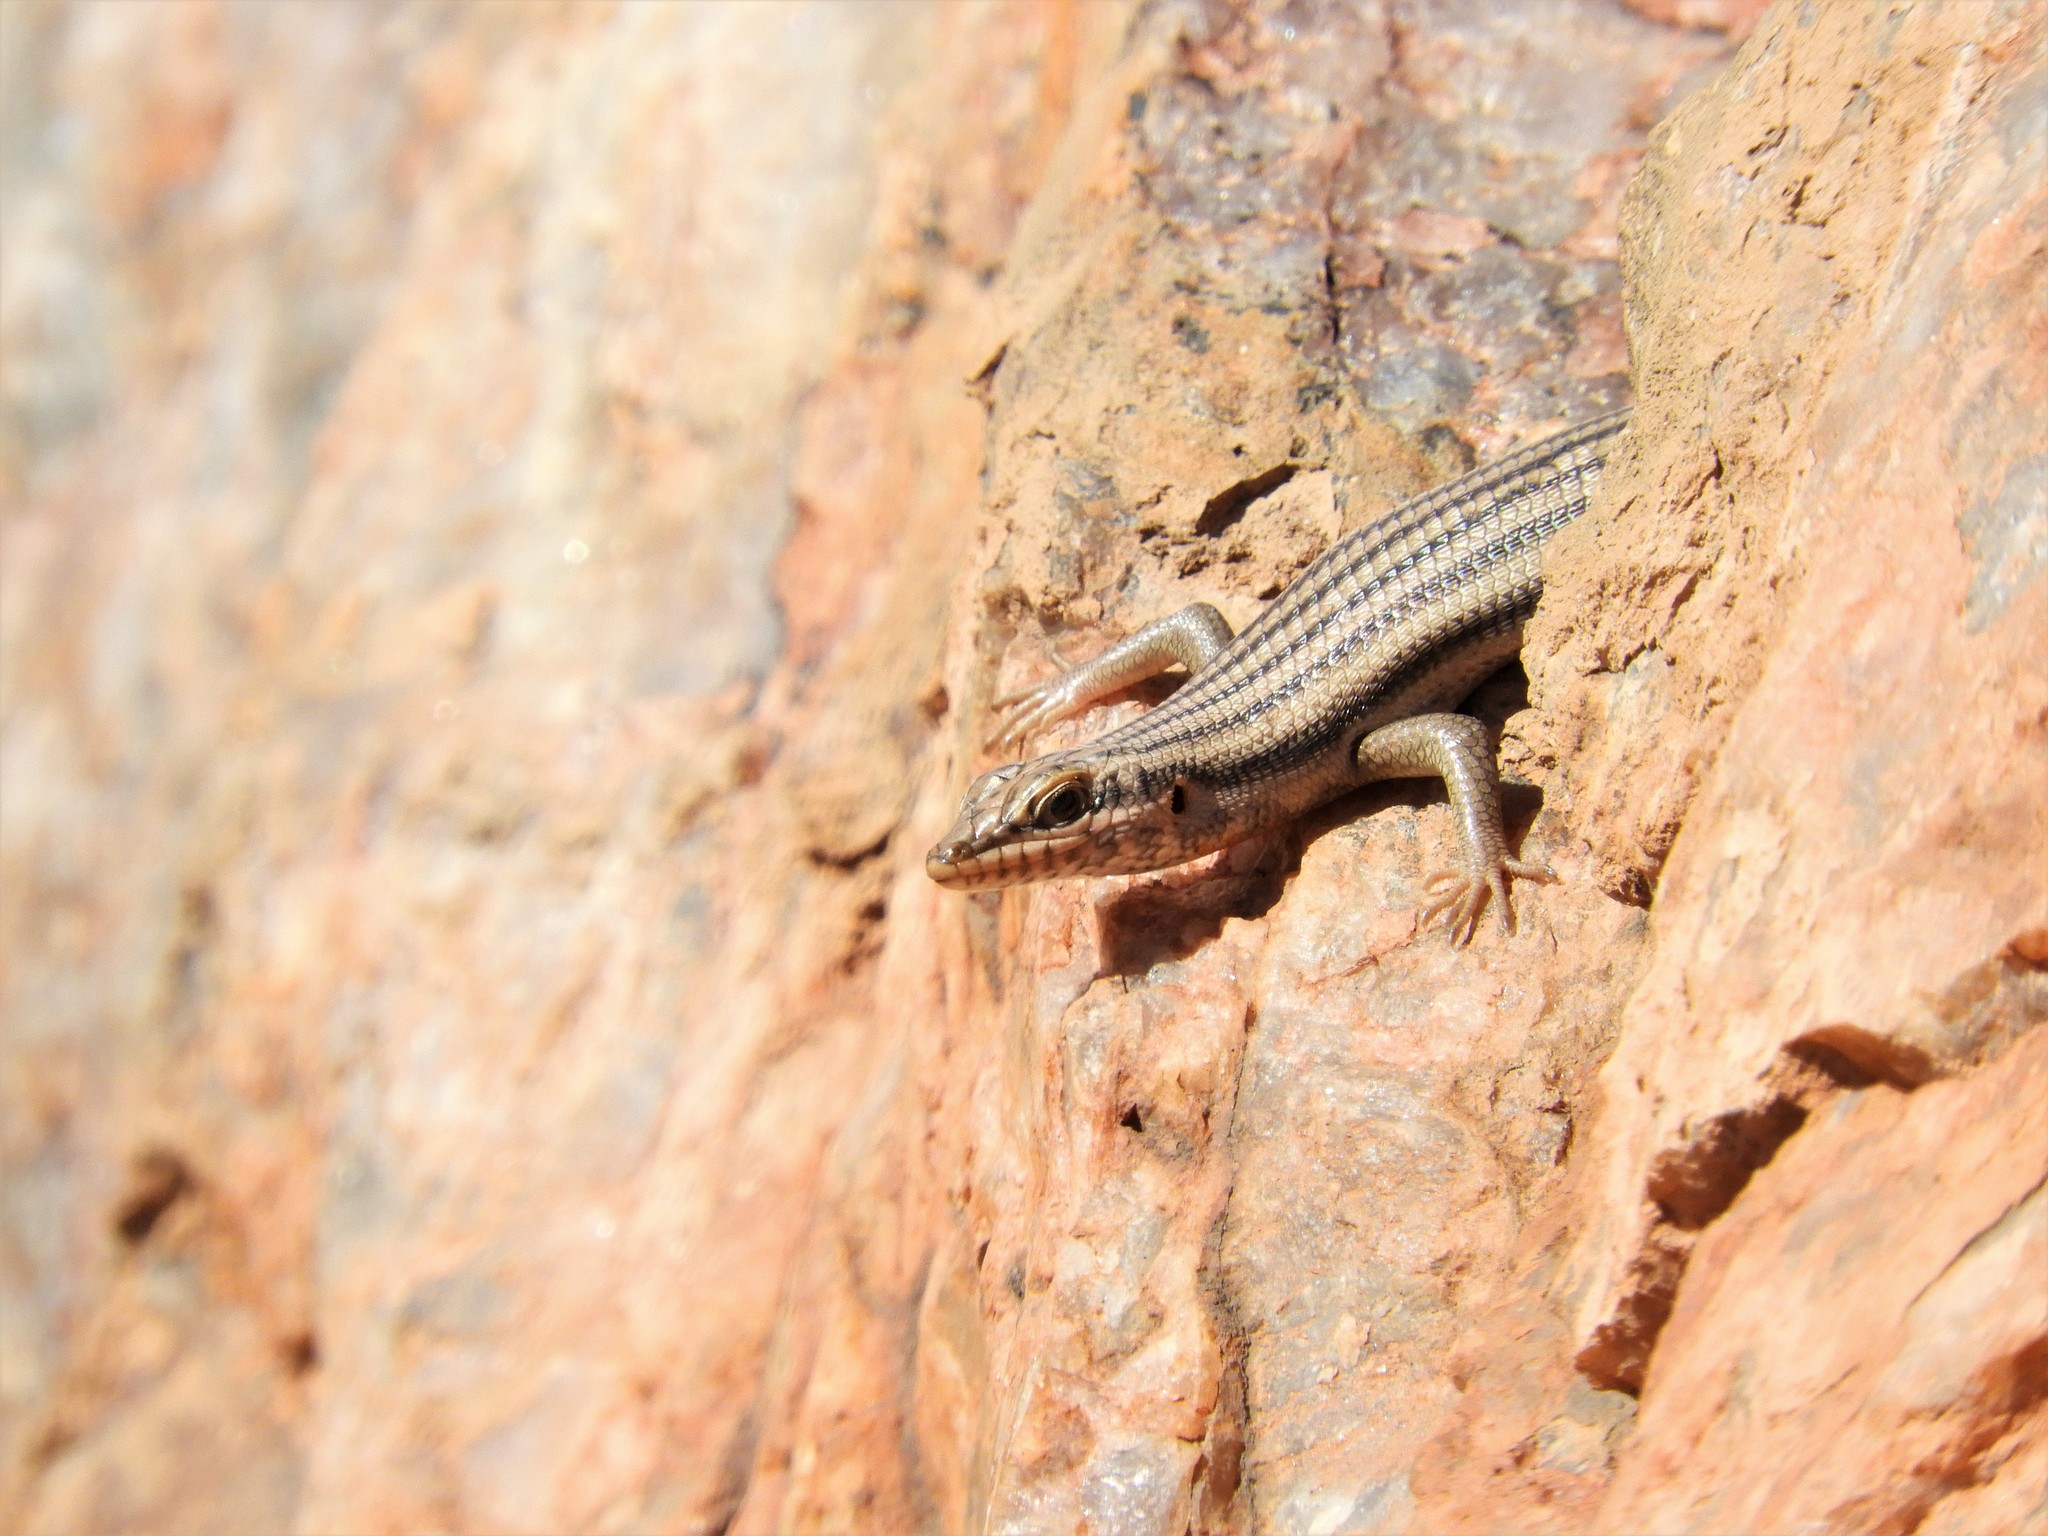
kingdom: Animalia
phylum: Chordata
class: Squamata
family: Scincidae
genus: Trachylepis
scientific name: Trachylepis sulcata
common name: Western rock skink
